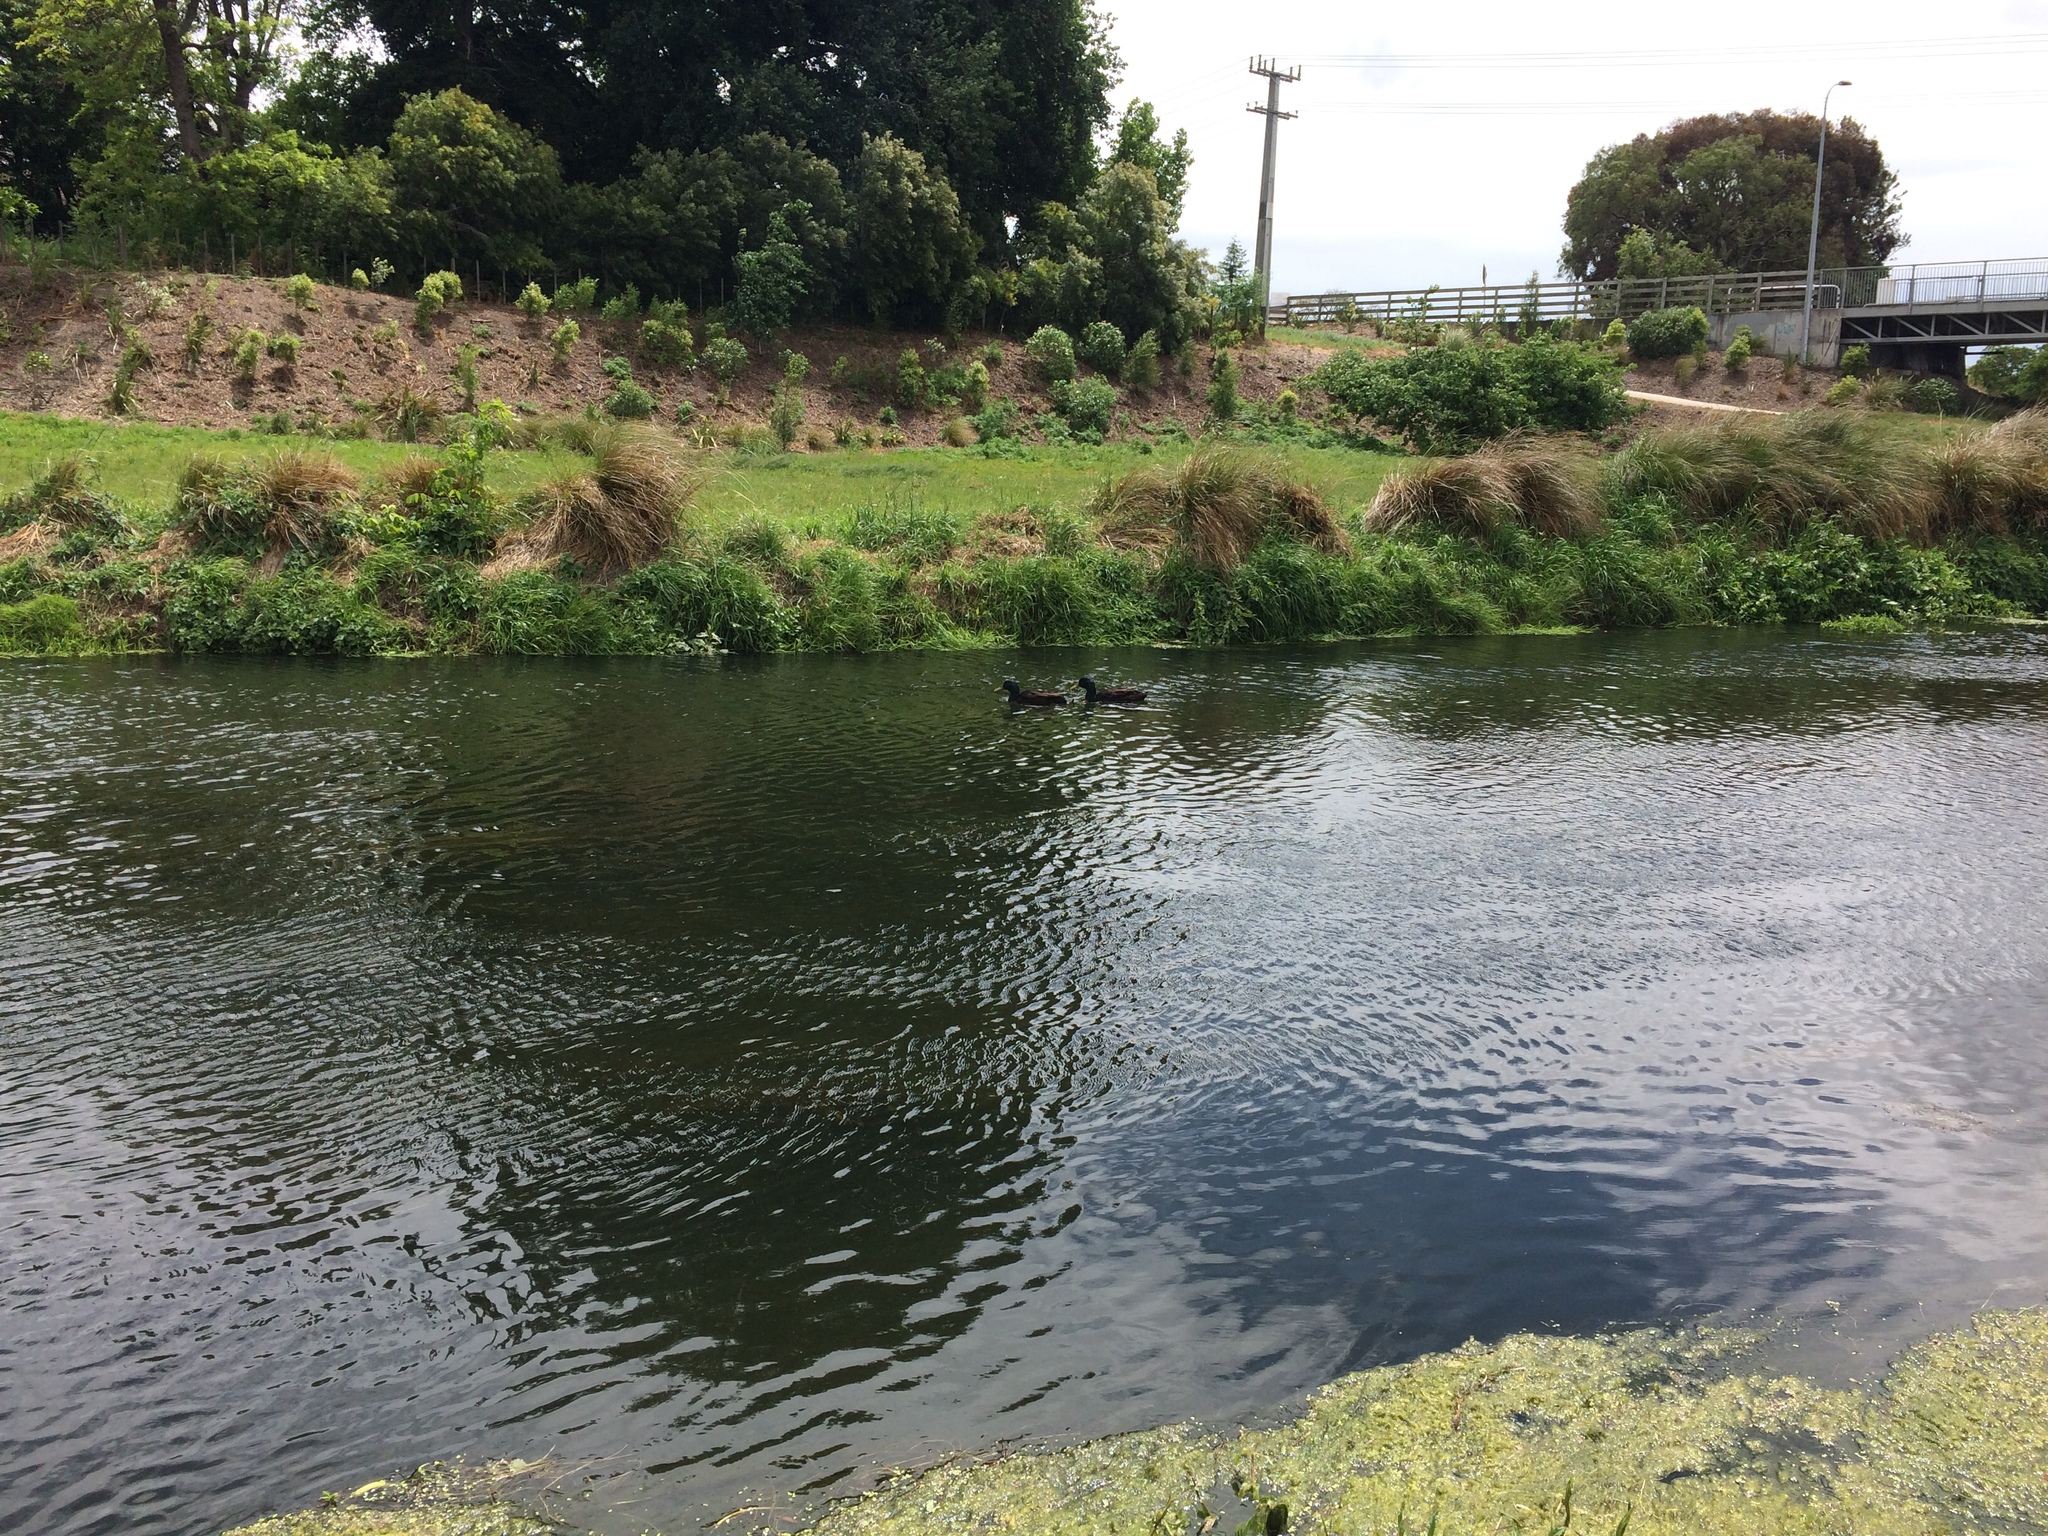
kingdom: Animalia
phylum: Chordata
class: Aves
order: Anseriformes
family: Anatidae
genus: Anas
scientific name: Anas platyrhynchos
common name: Mallard
